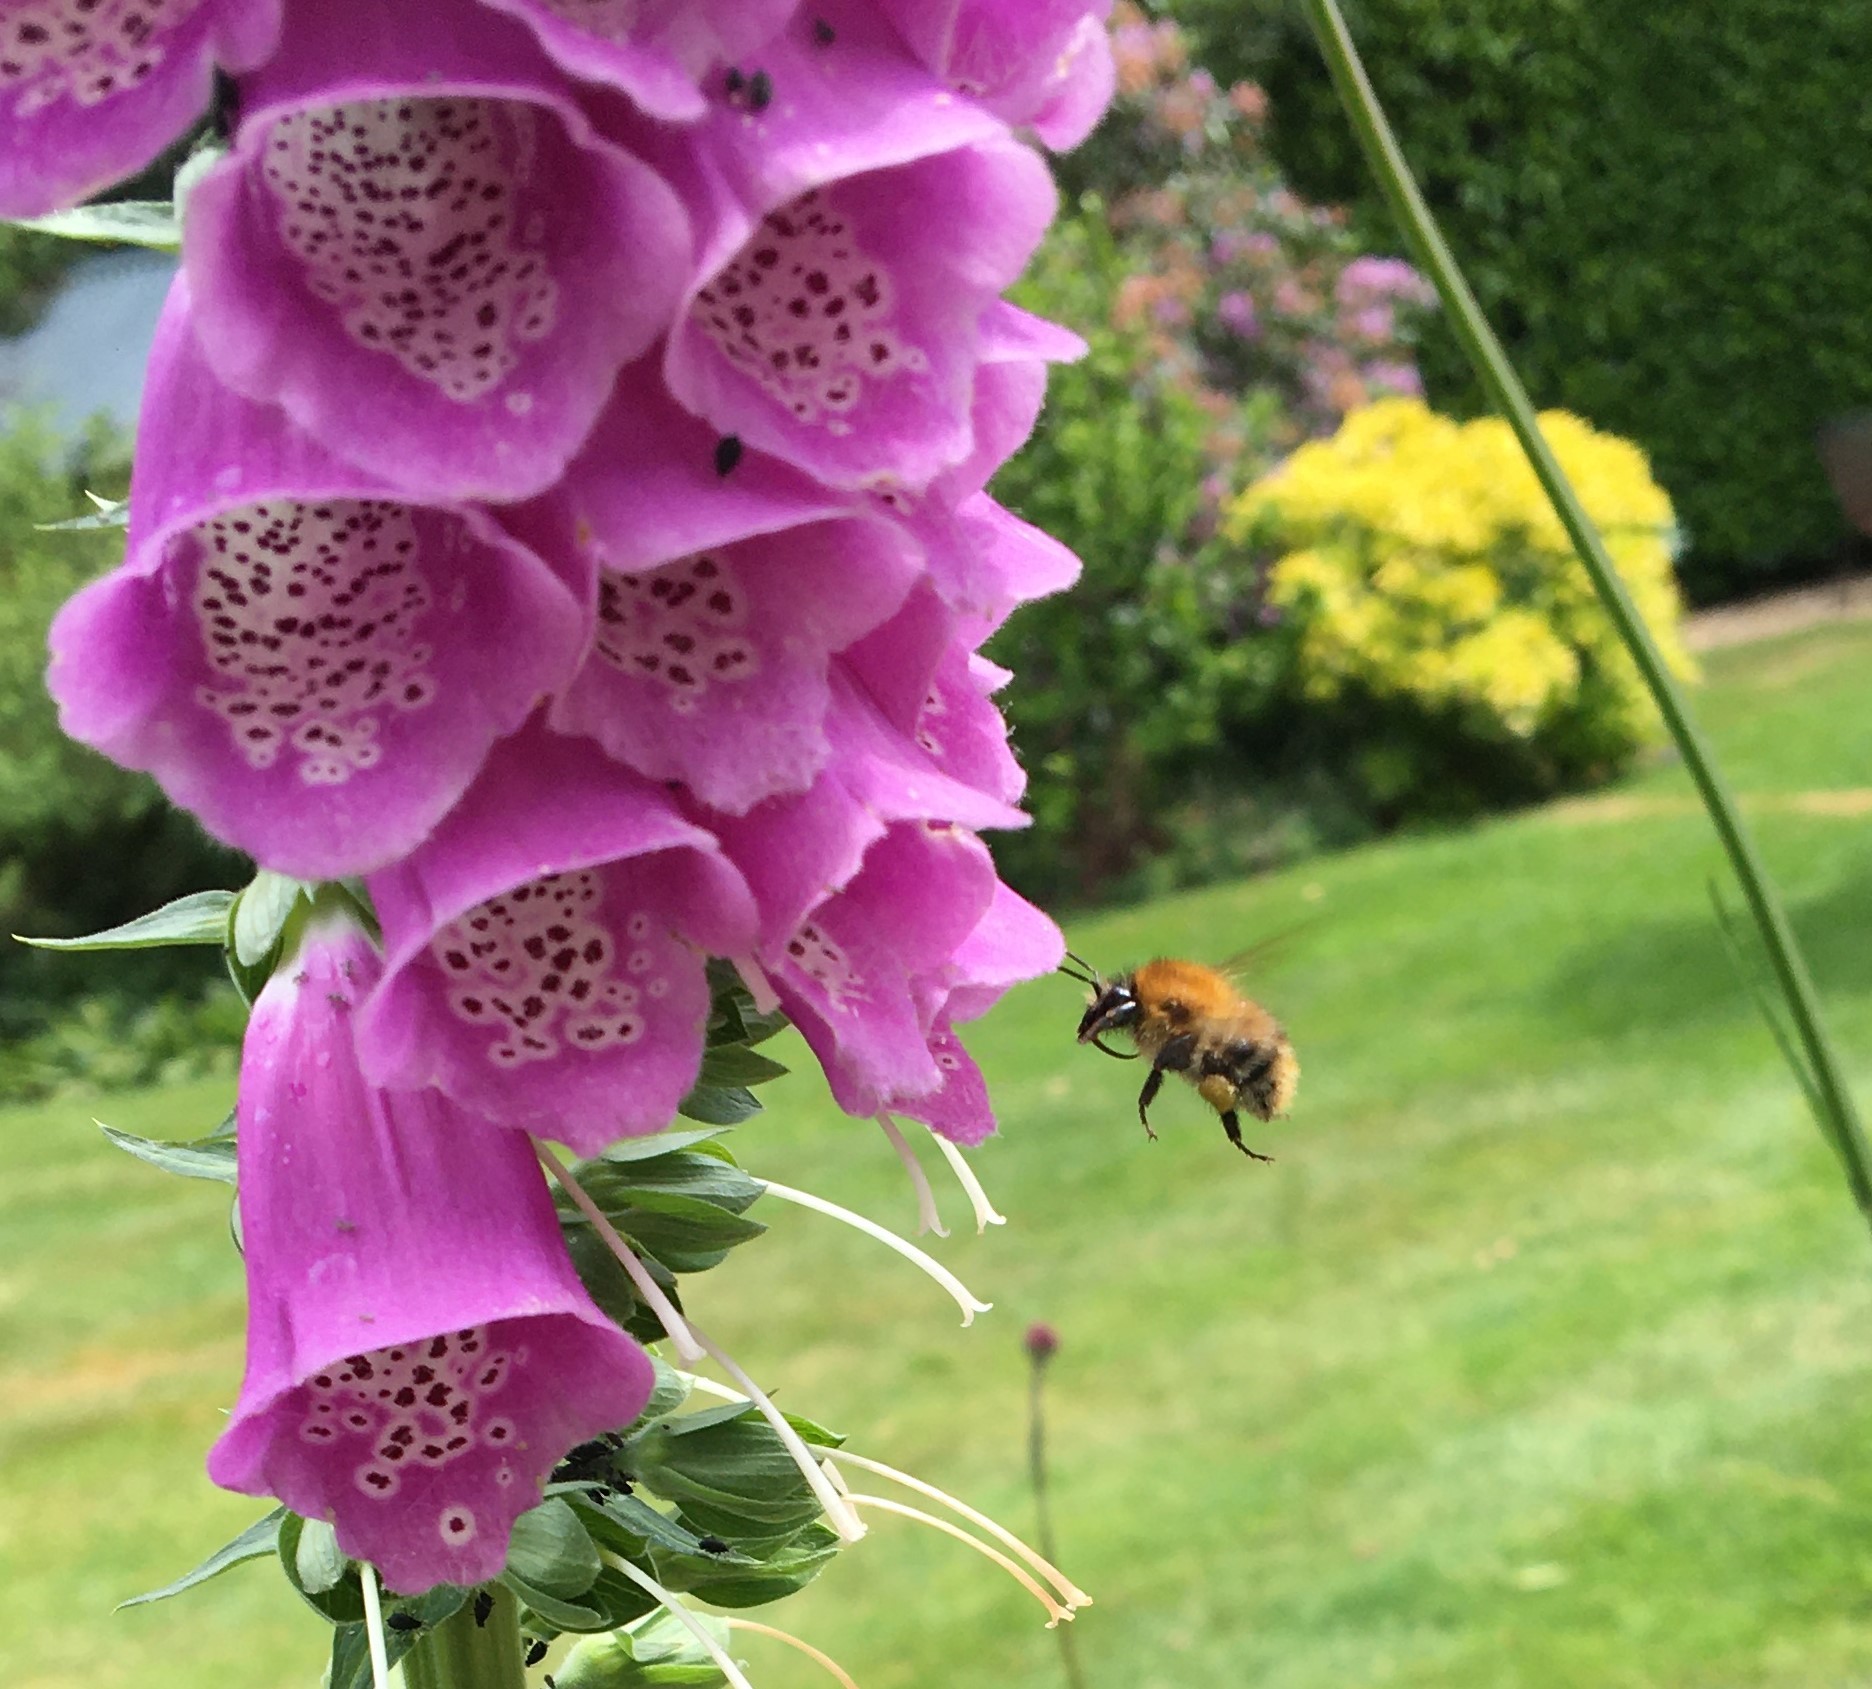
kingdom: Animalia
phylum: Arthropoda
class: Insecta
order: Hymenoptera
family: Apidae
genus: Bombus
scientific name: Bombus pascuorum
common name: Common carder bee
